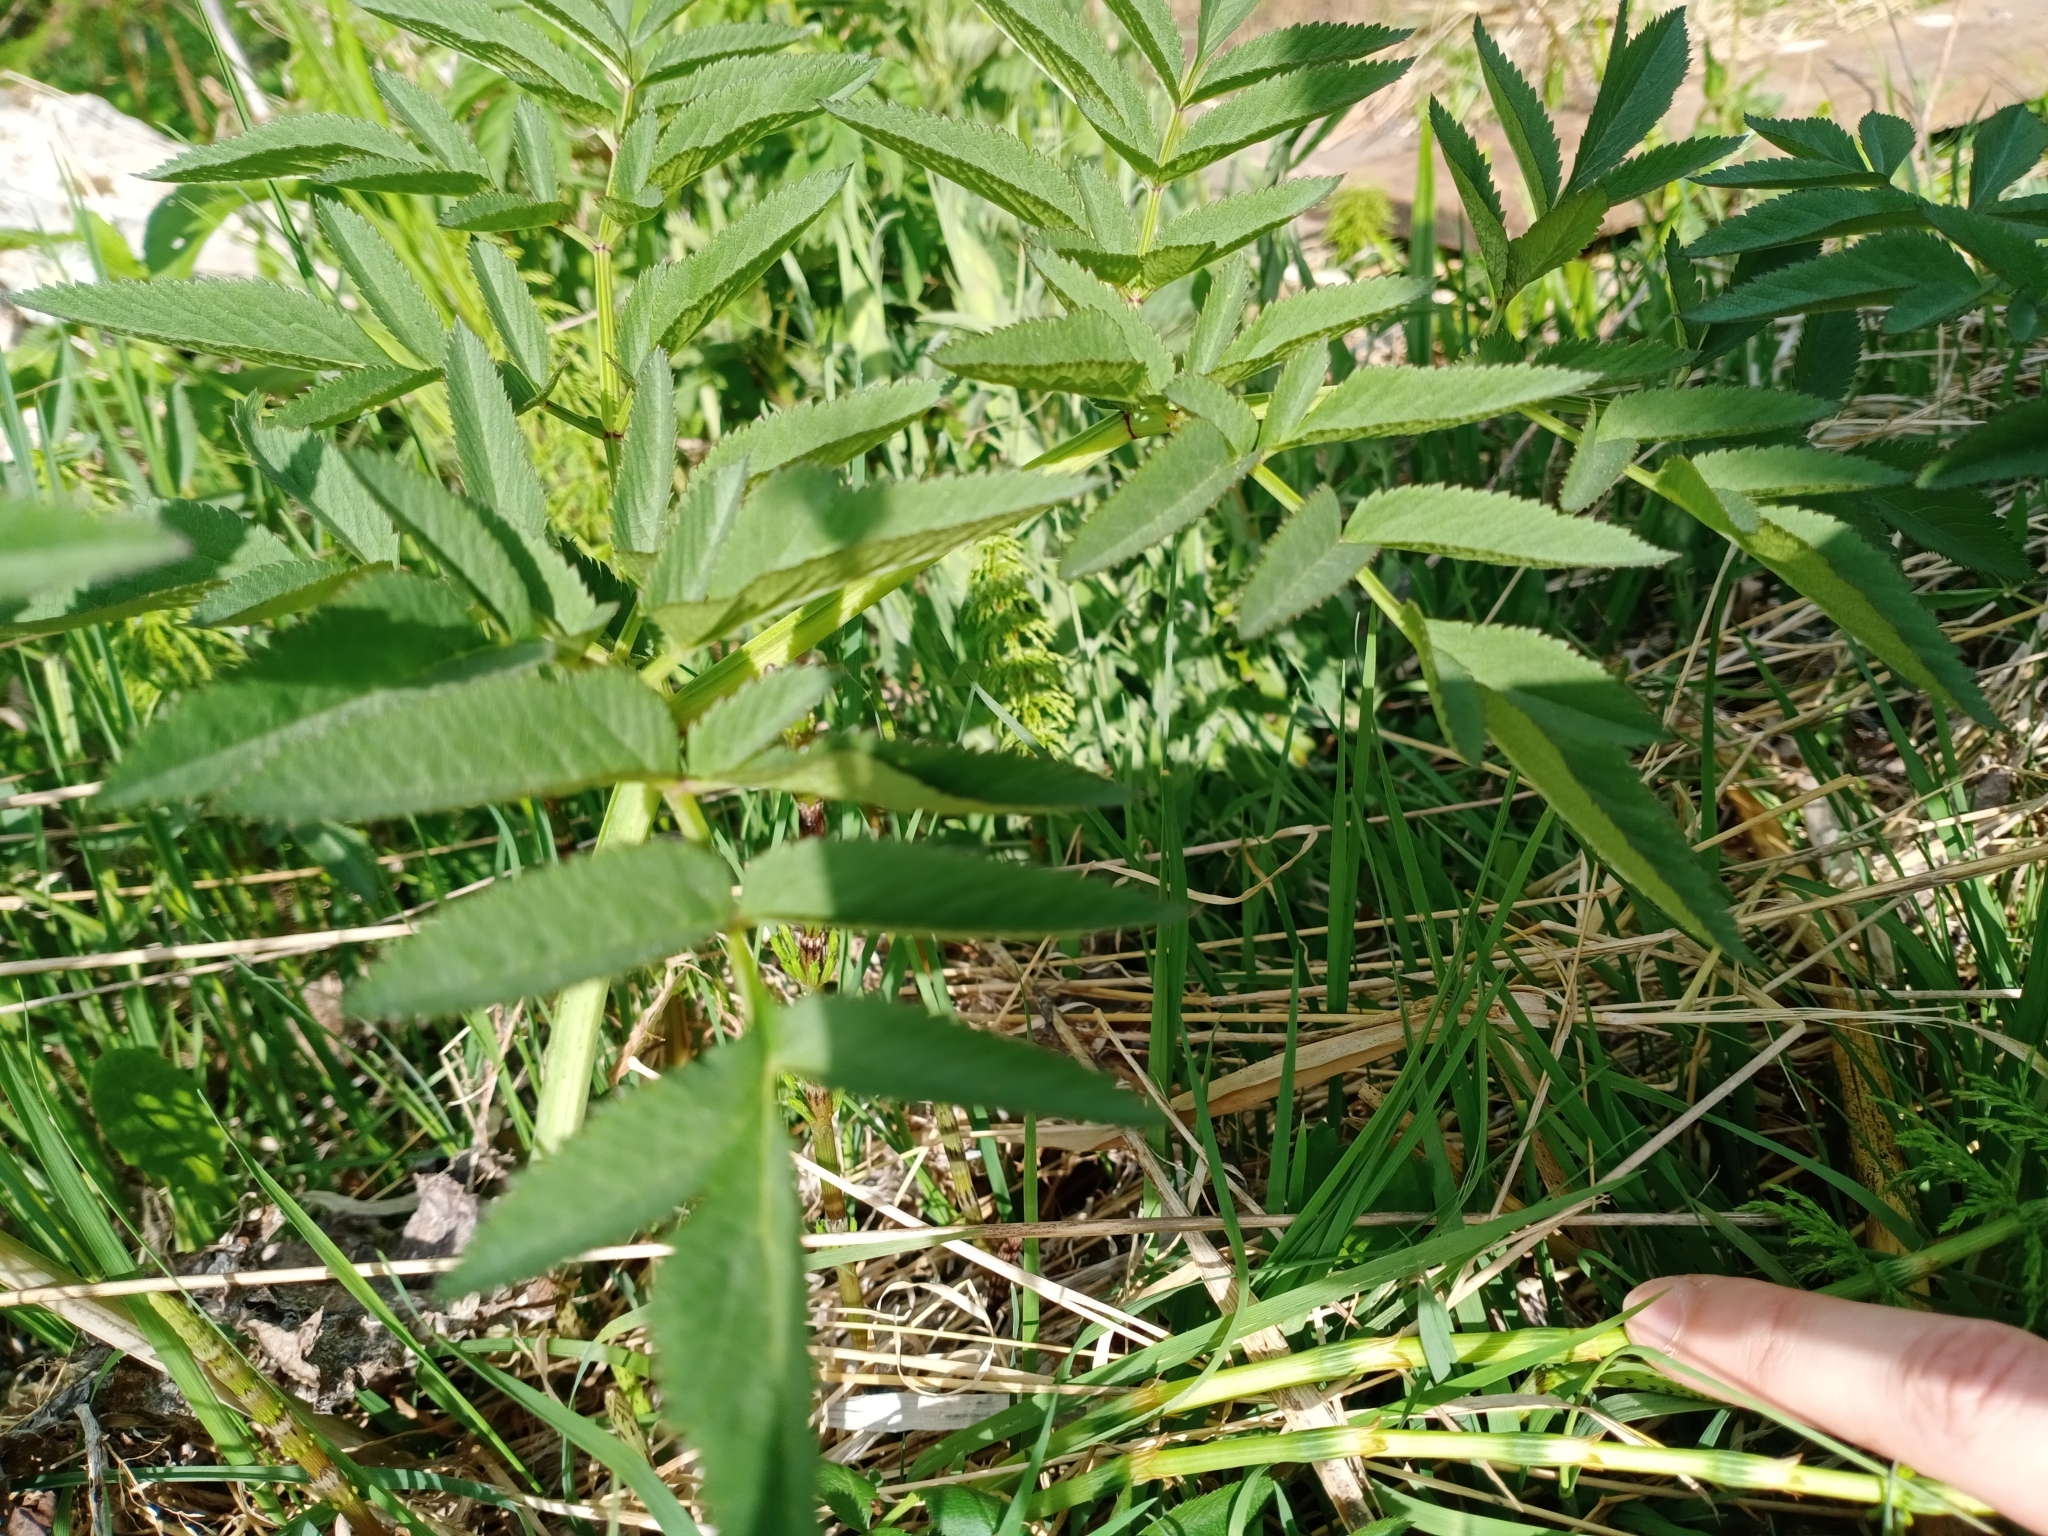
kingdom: Plantae
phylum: Tracheophyta
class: Magnoliopsida
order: Apiales
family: Apiaceae
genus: Angelica
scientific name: Angelica sylvestris
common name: Wild angelica
